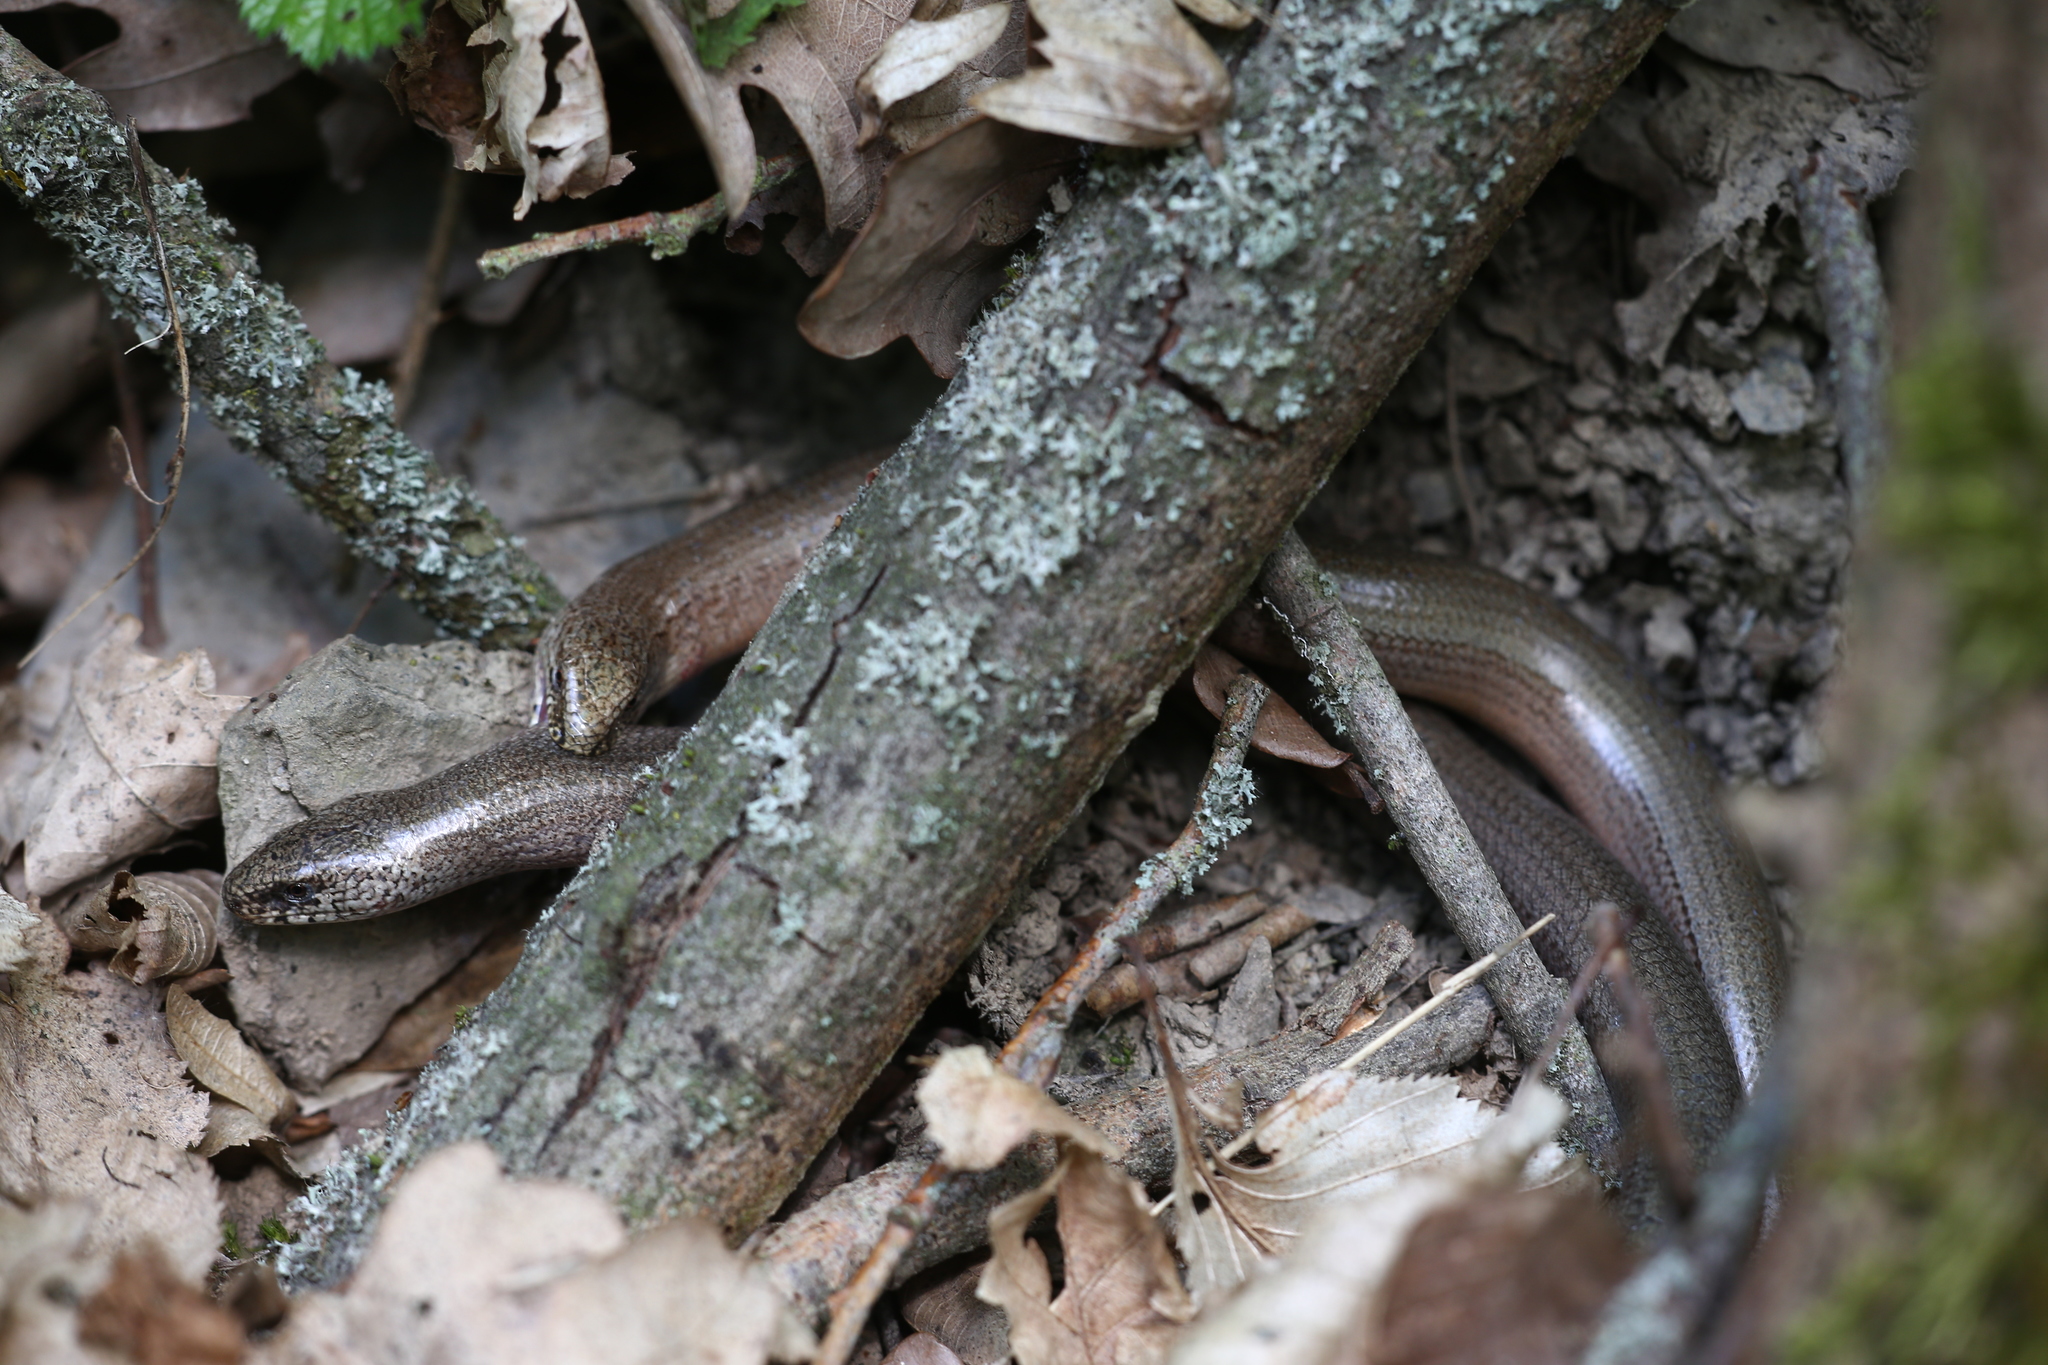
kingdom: Animalia
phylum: Chordata
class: Squamata
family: Anguidae
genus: Anguis
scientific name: Anguis fragilis
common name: Slow worm
